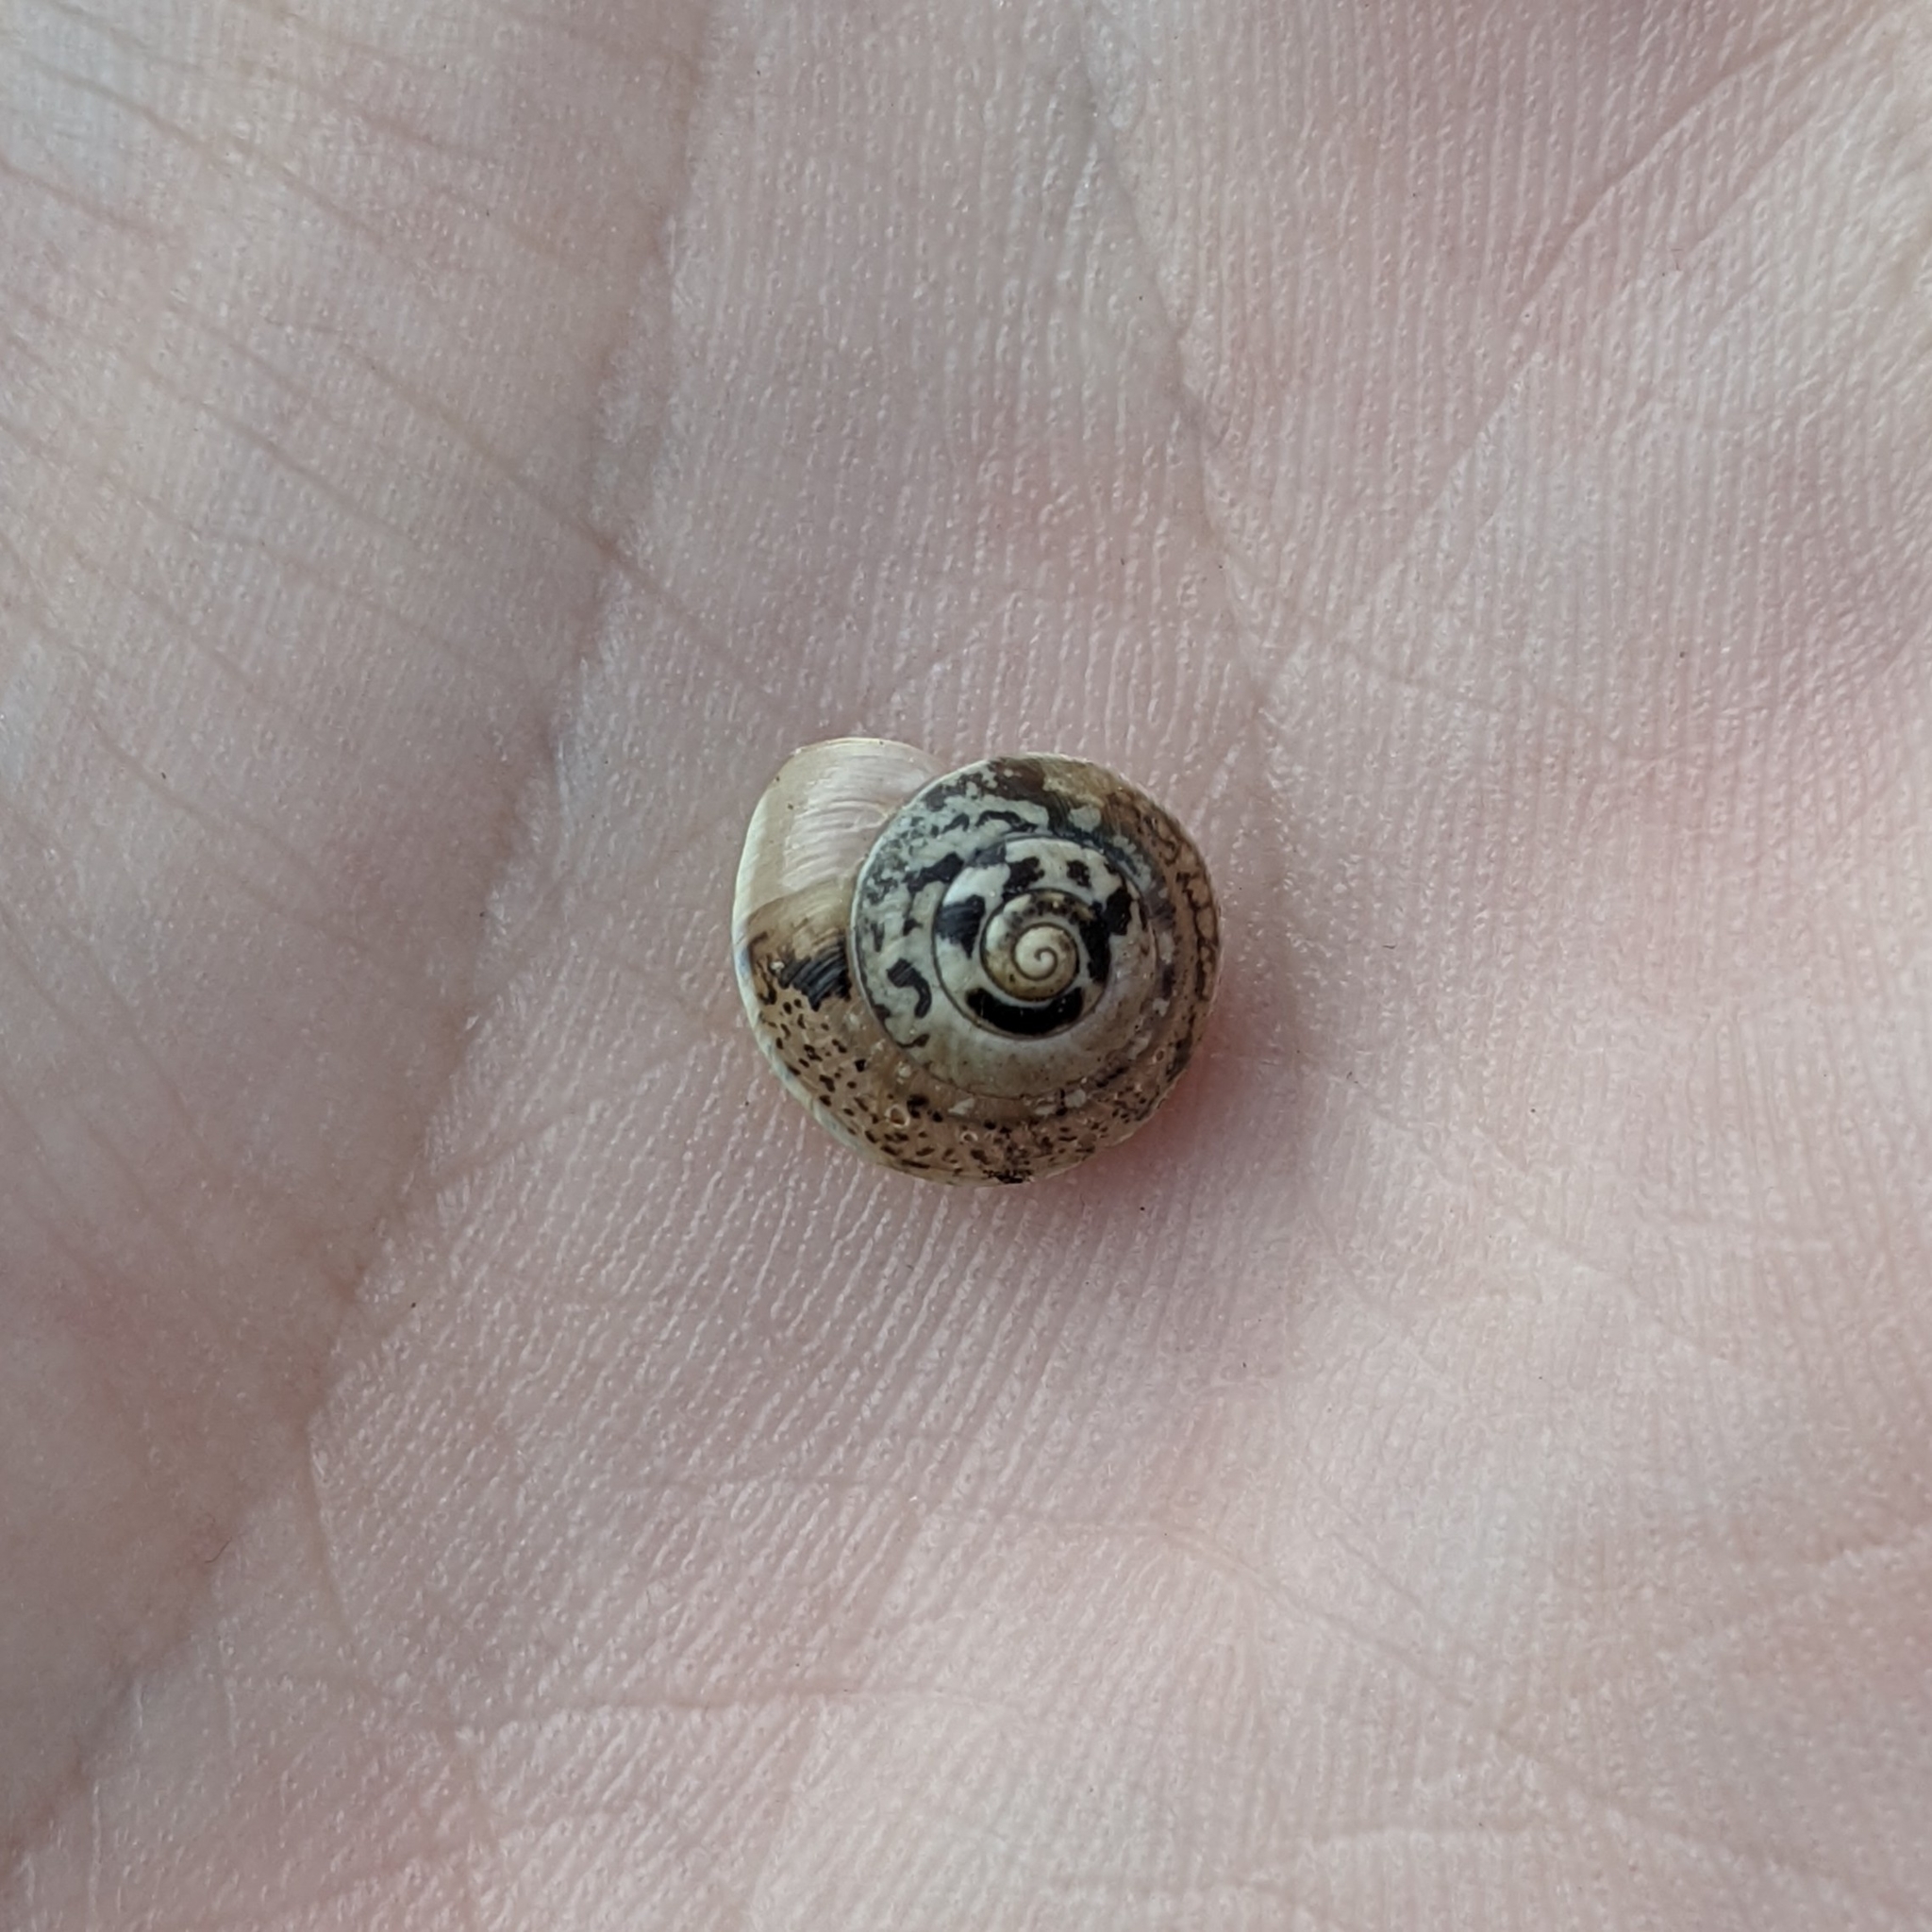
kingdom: Animalia
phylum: Mollusca
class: Gastropoda
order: Stylommatophora
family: Hygromiidae
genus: Hygromia
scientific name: Hygromia cinctella
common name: Girdled snail
